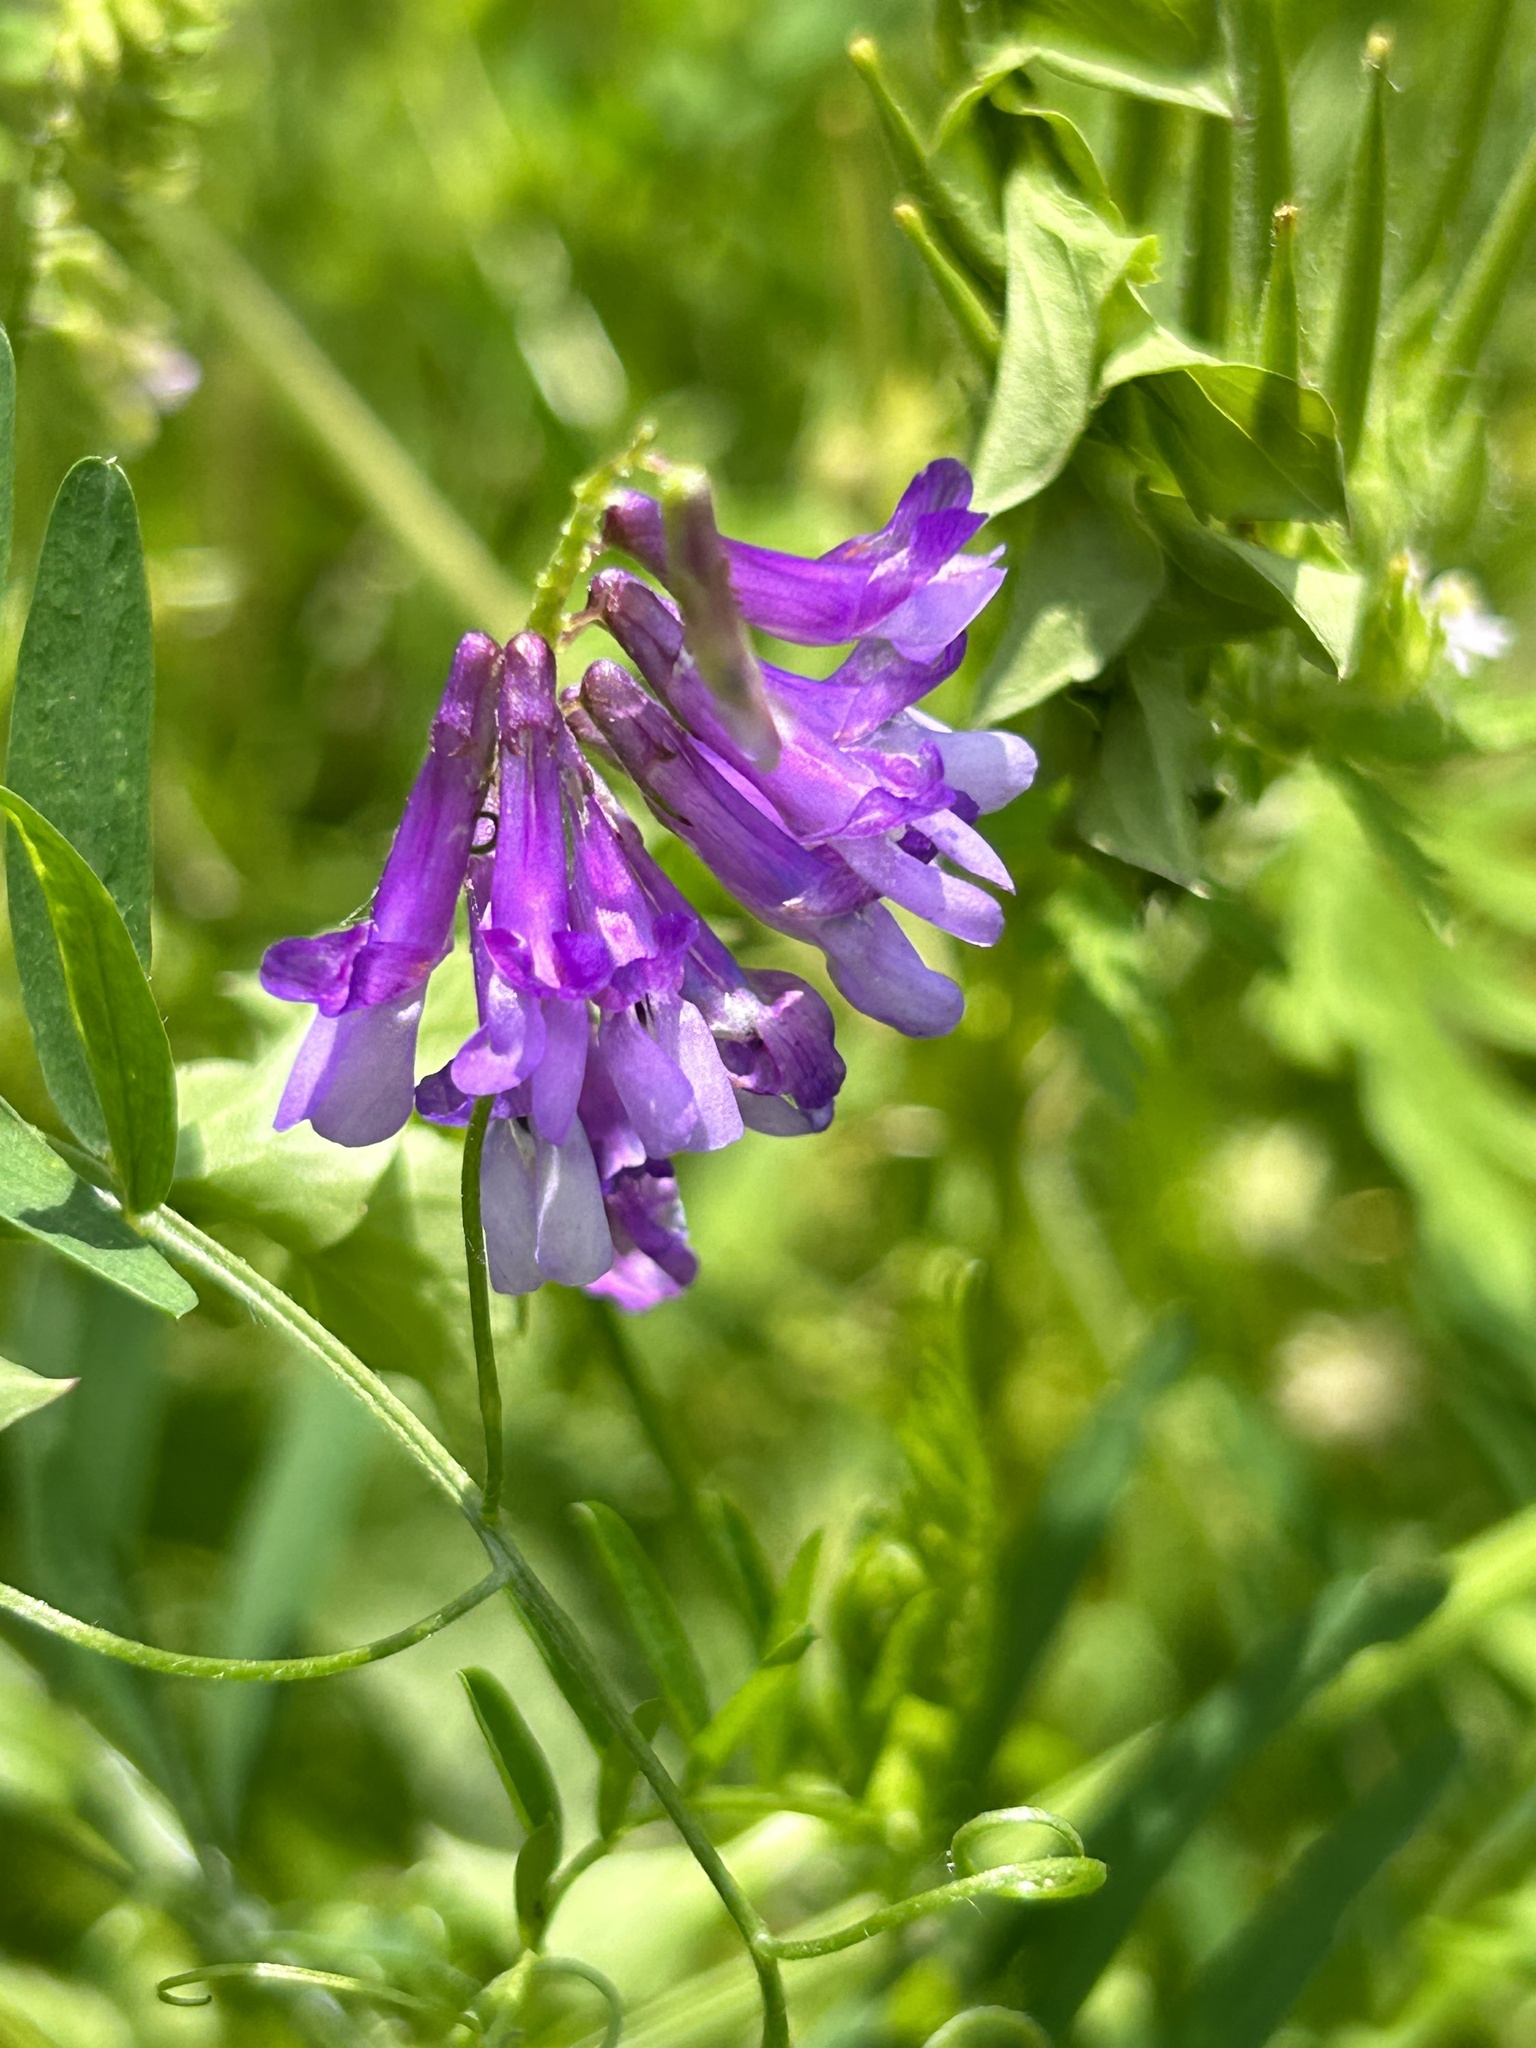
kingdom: Plantae
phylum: Tracheophyta
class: Magnoliopsida
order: Fabales
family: Fabaceae
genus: Vicia
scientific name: Vicia villosa
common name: Fodder vetch
